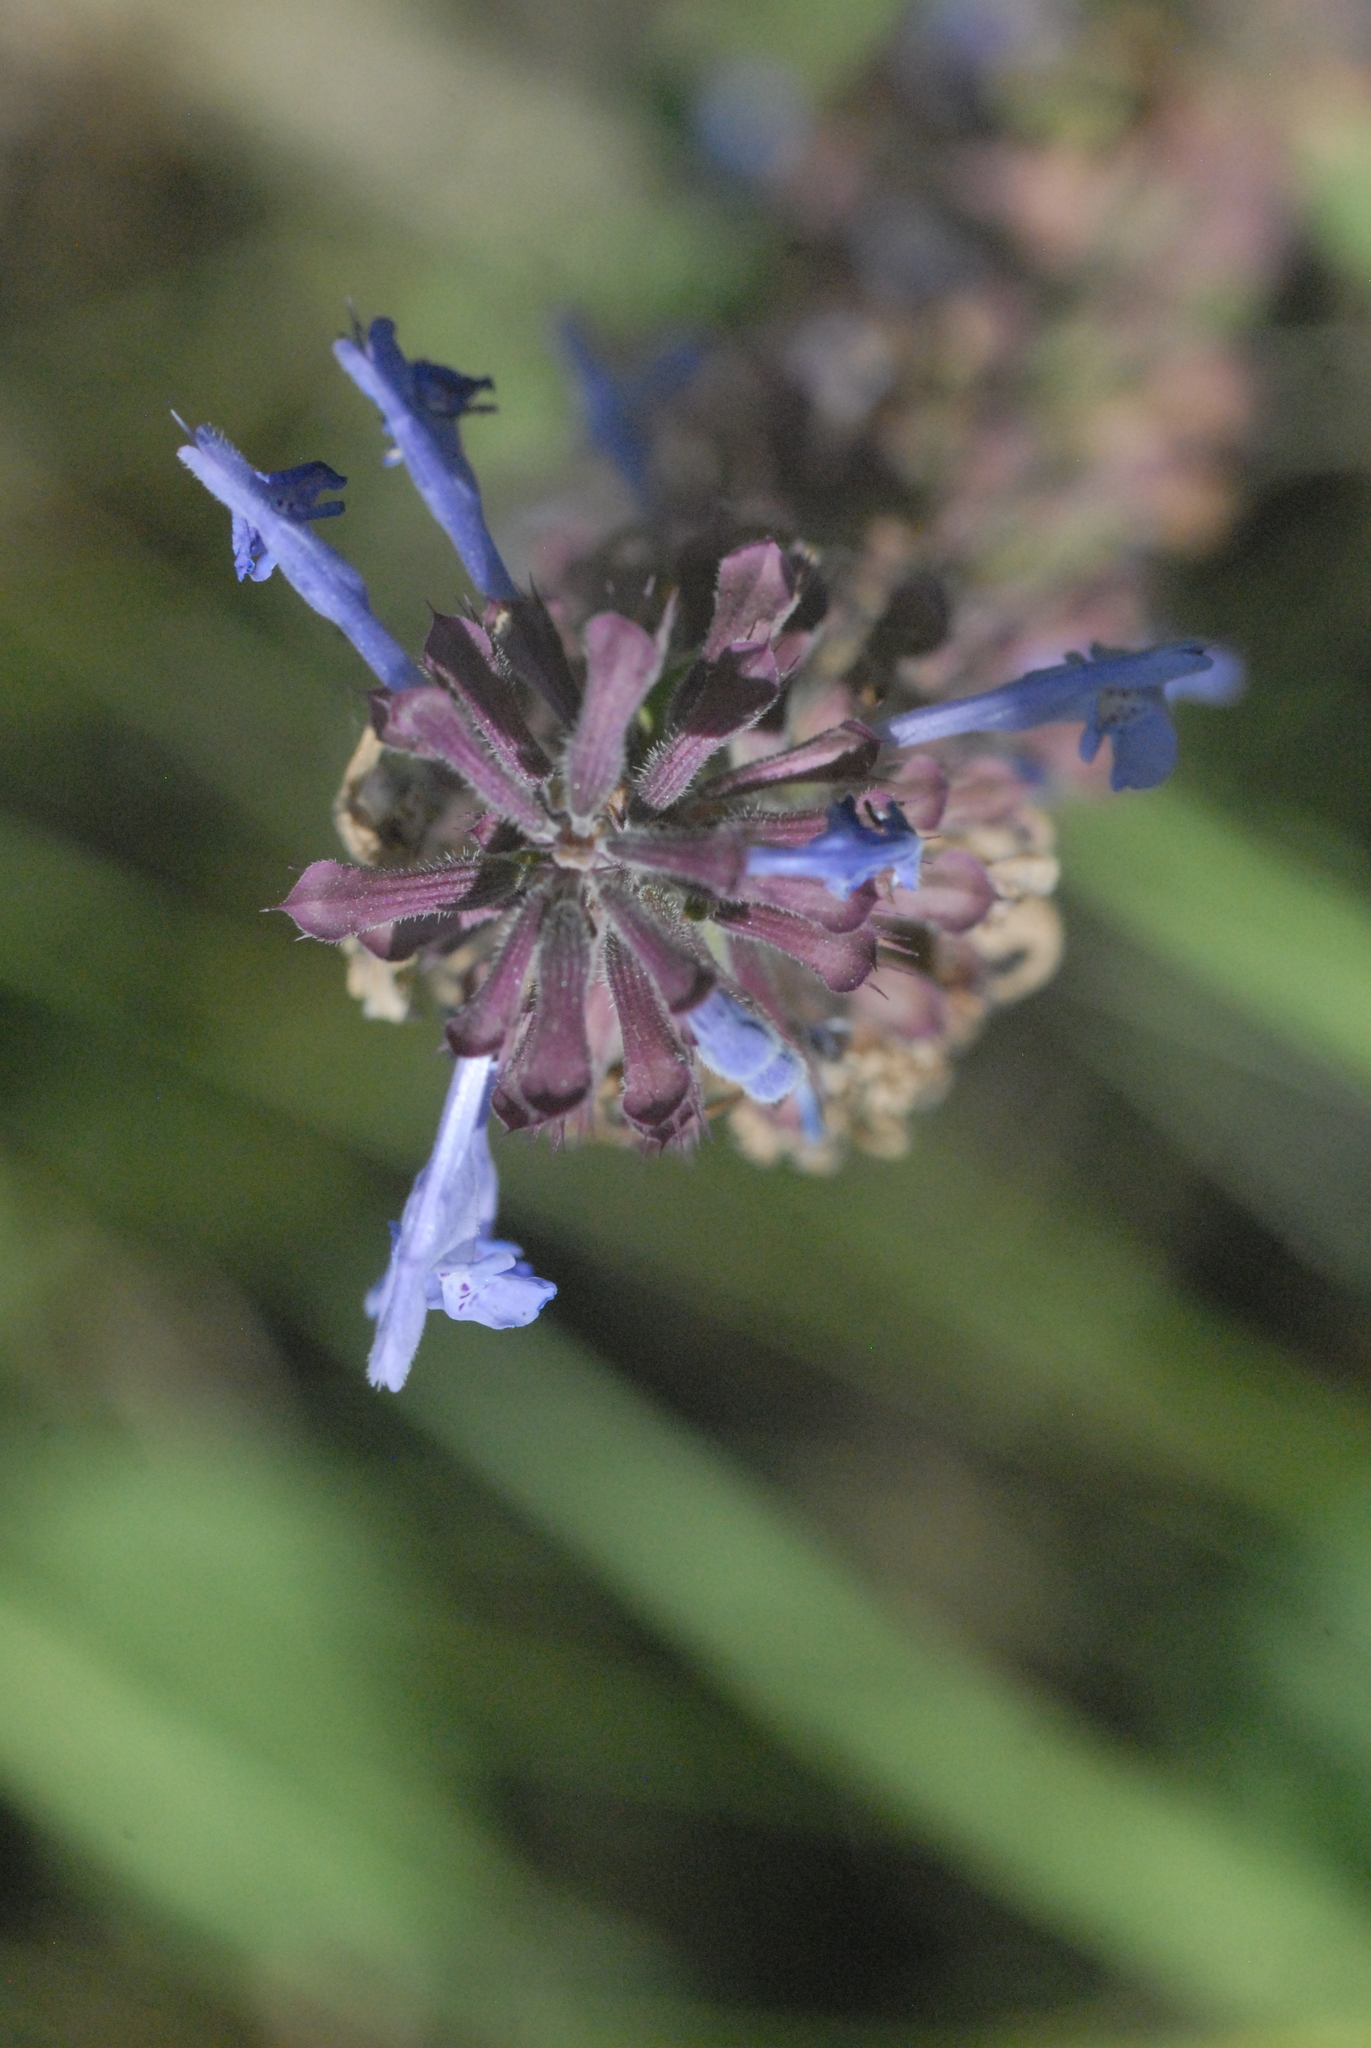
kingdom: Plantae
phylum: Tracheophyta
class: Magnoliopsida
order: Lamiales
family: Lamiaceae
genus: Dracocephalum
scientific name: Dracocephalum nutans
